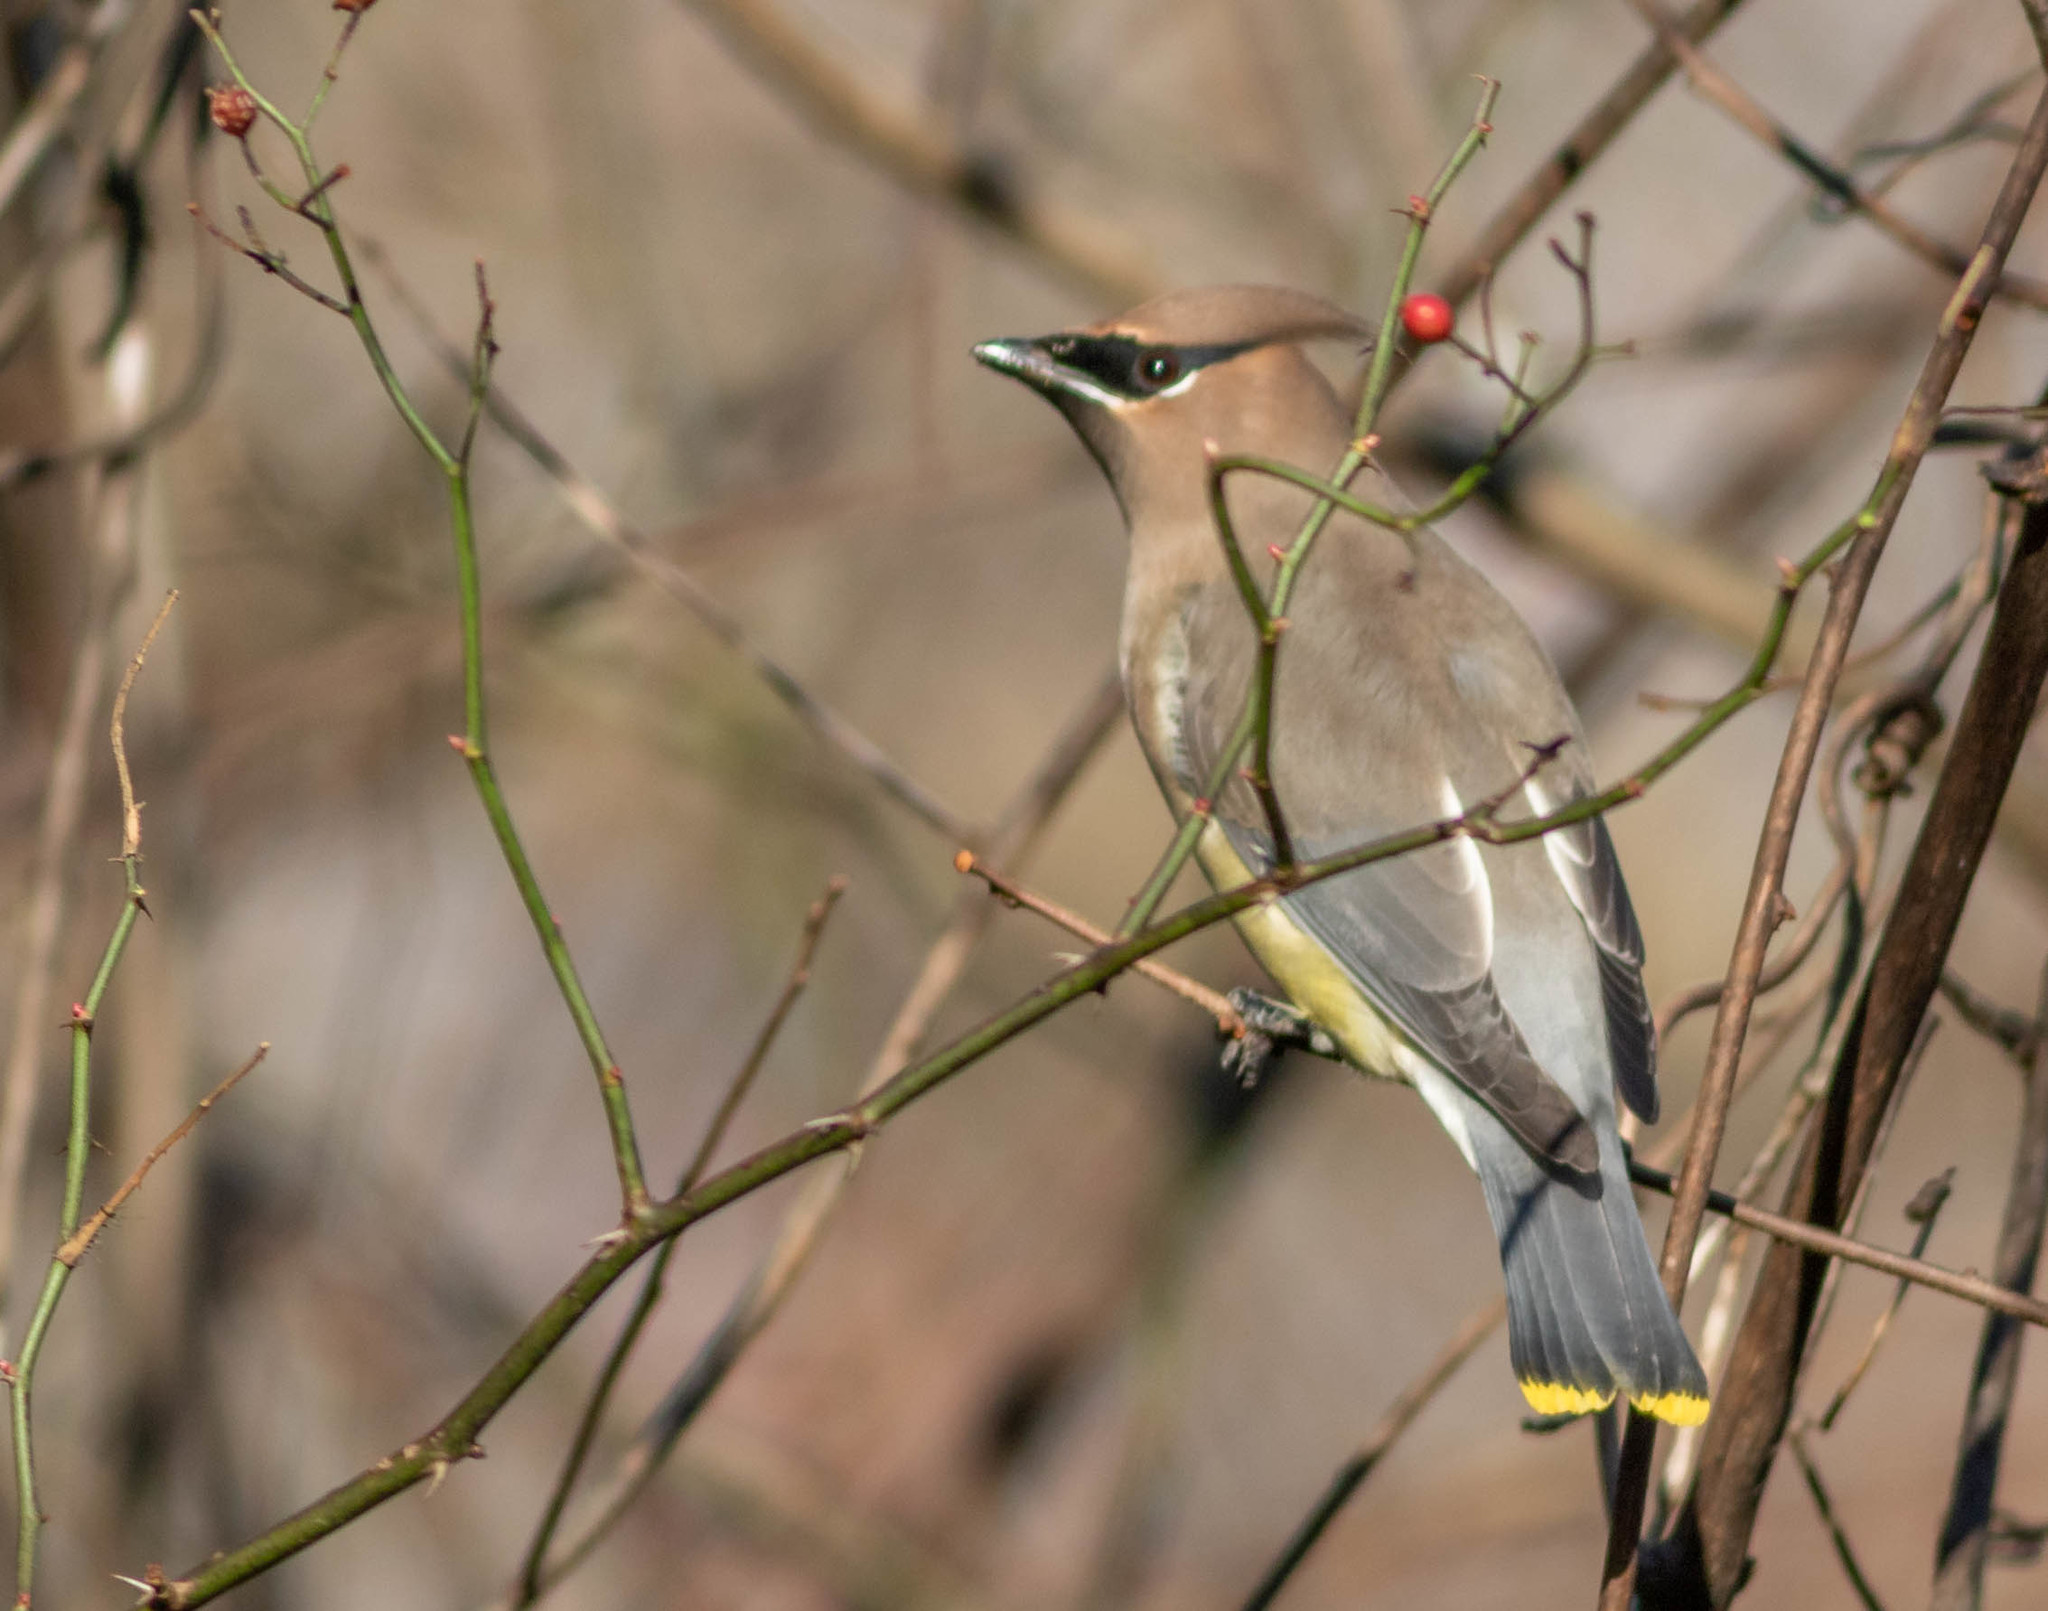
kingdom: Animalia
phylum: Chordata
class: Aves
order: Passeriformes
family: Bombycillidae
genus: Bombycilla
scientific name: Bombycilla cedrorum
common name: Cedar waxwing
